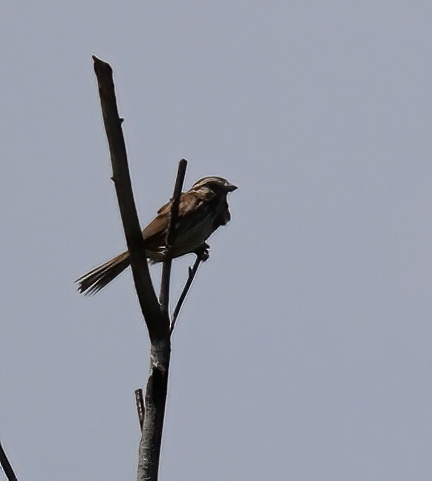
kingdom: Animalia
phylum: Chordata
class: Aves
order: Passeriformes
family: Passerellidae
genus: Melospiza
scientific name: Melospiza melodia
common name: Song sparrow
